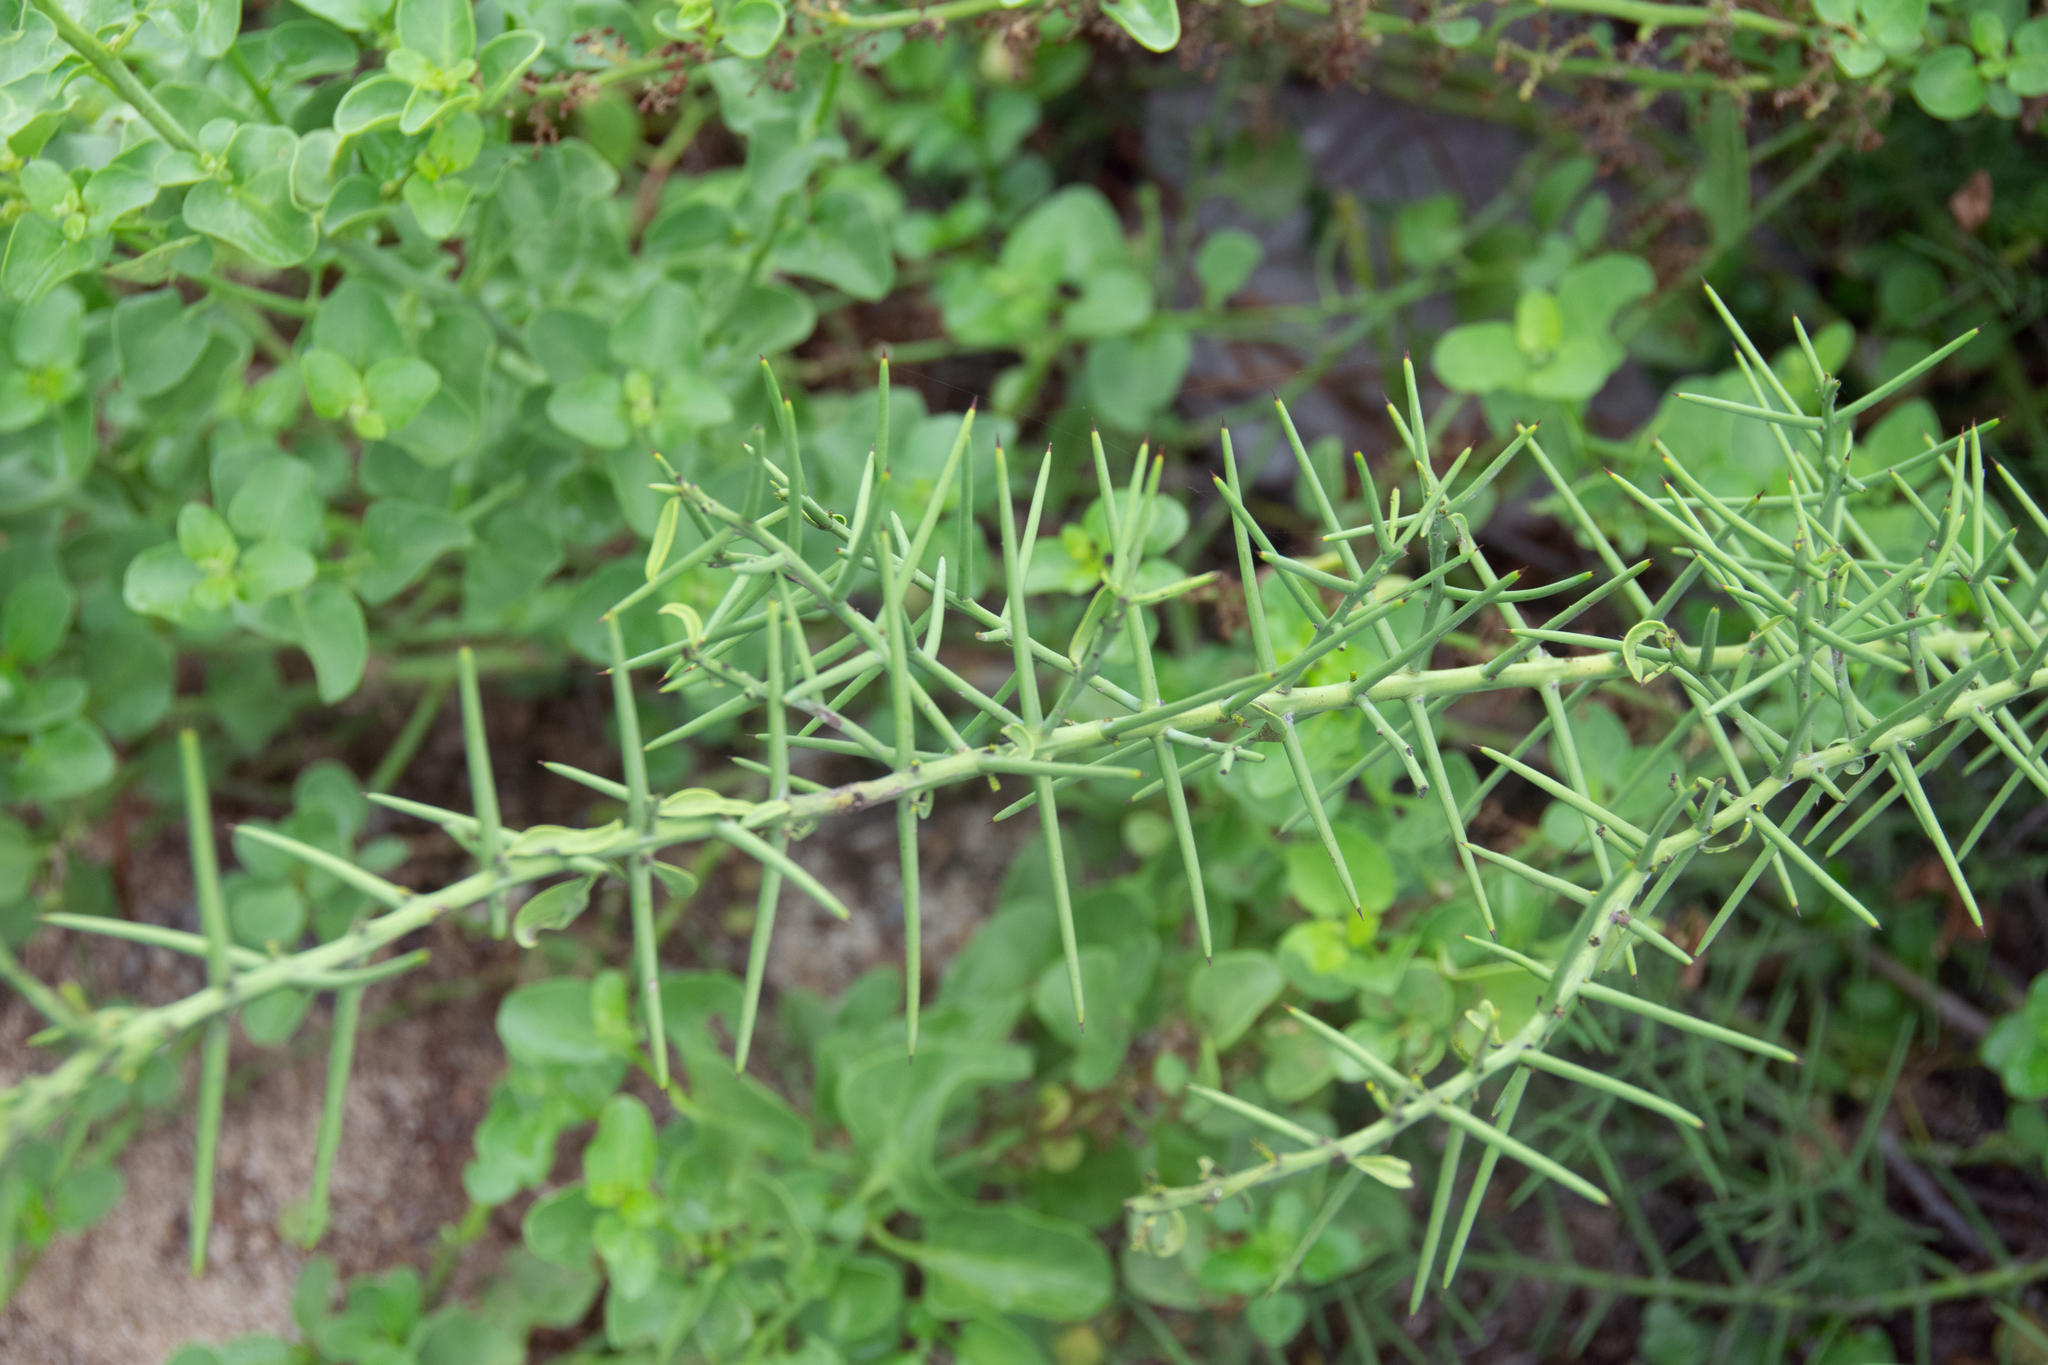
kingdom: Plantae
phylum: Tracheophyta
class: Magnoliopsida
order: Rosales
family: Rhamnaceae
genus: Scutia
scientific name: Scutia spicata
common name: Spiny bush
